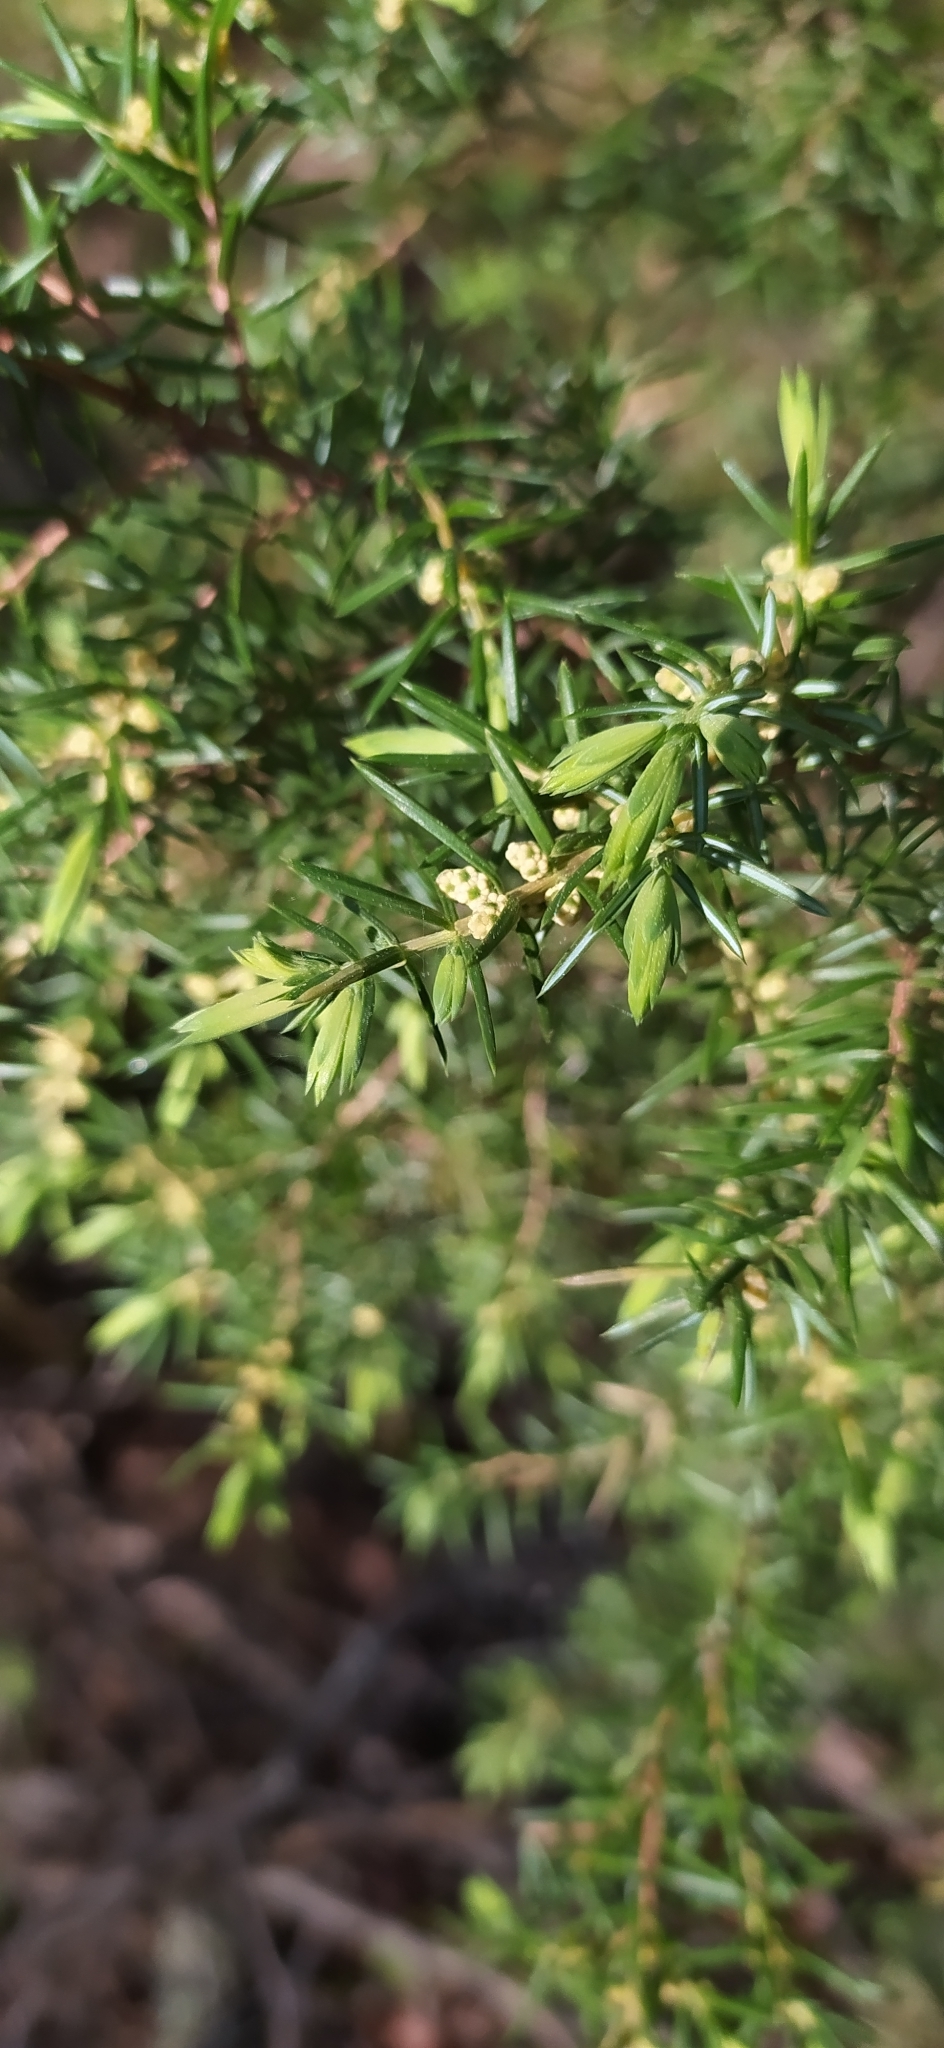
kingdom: Plantae
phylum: Tracheophyta
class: Pinopsida
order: Pinales
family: Cupressaceae
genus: Juniperus
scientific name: Juniperus communis
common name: Common juniper
